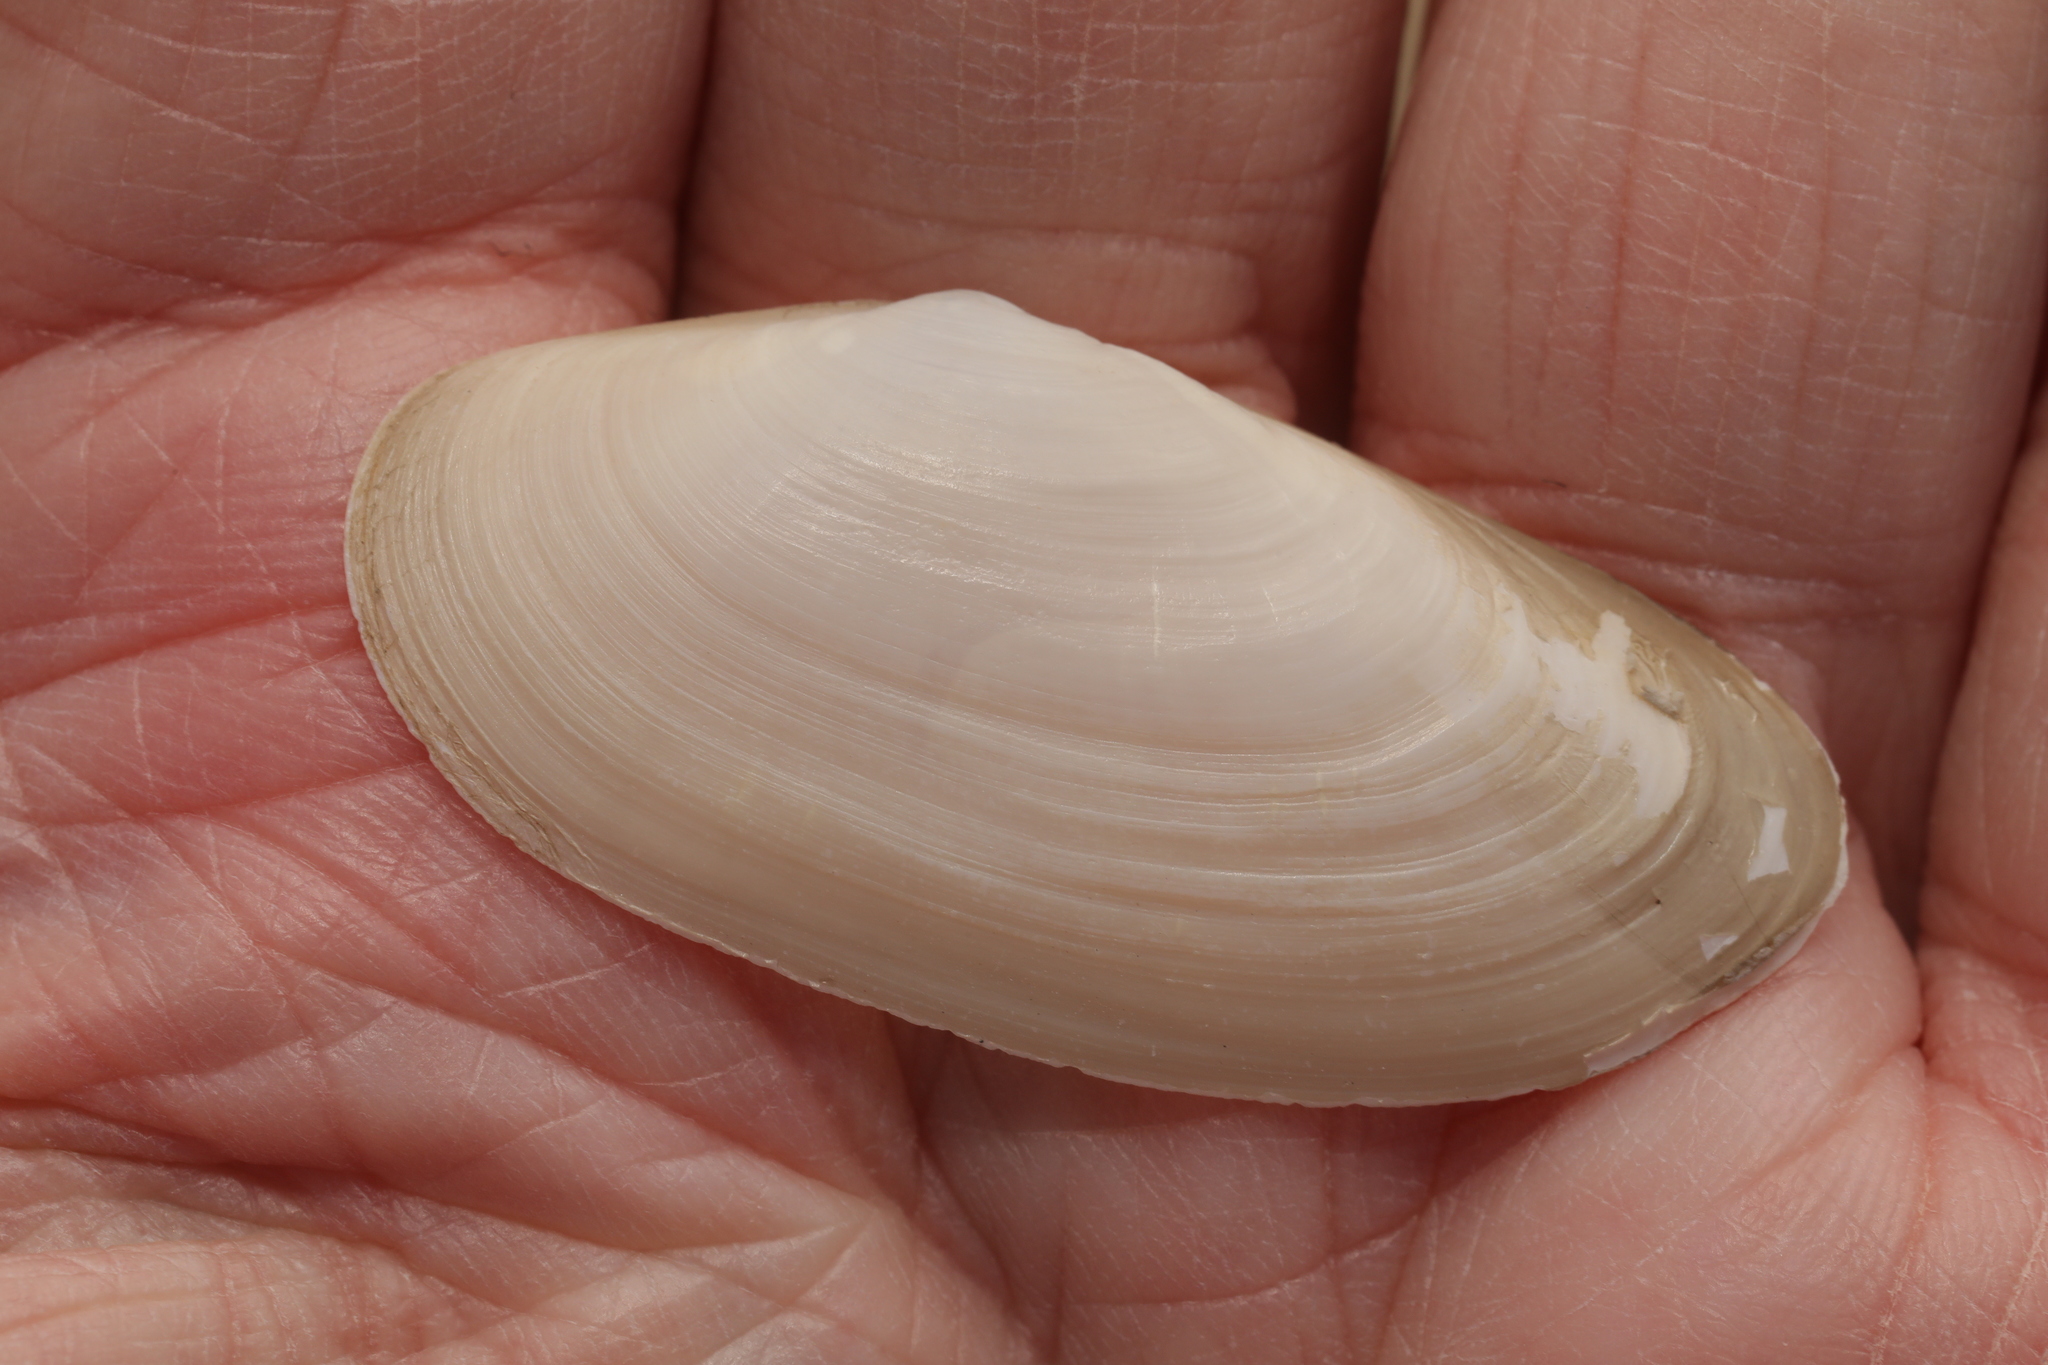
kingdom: Animalia
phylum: Mollusca
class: Bivalvia
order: Venerida
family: Mactridae
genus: Lutraria
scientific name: Lutraria lutraria
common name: Common otter shell
